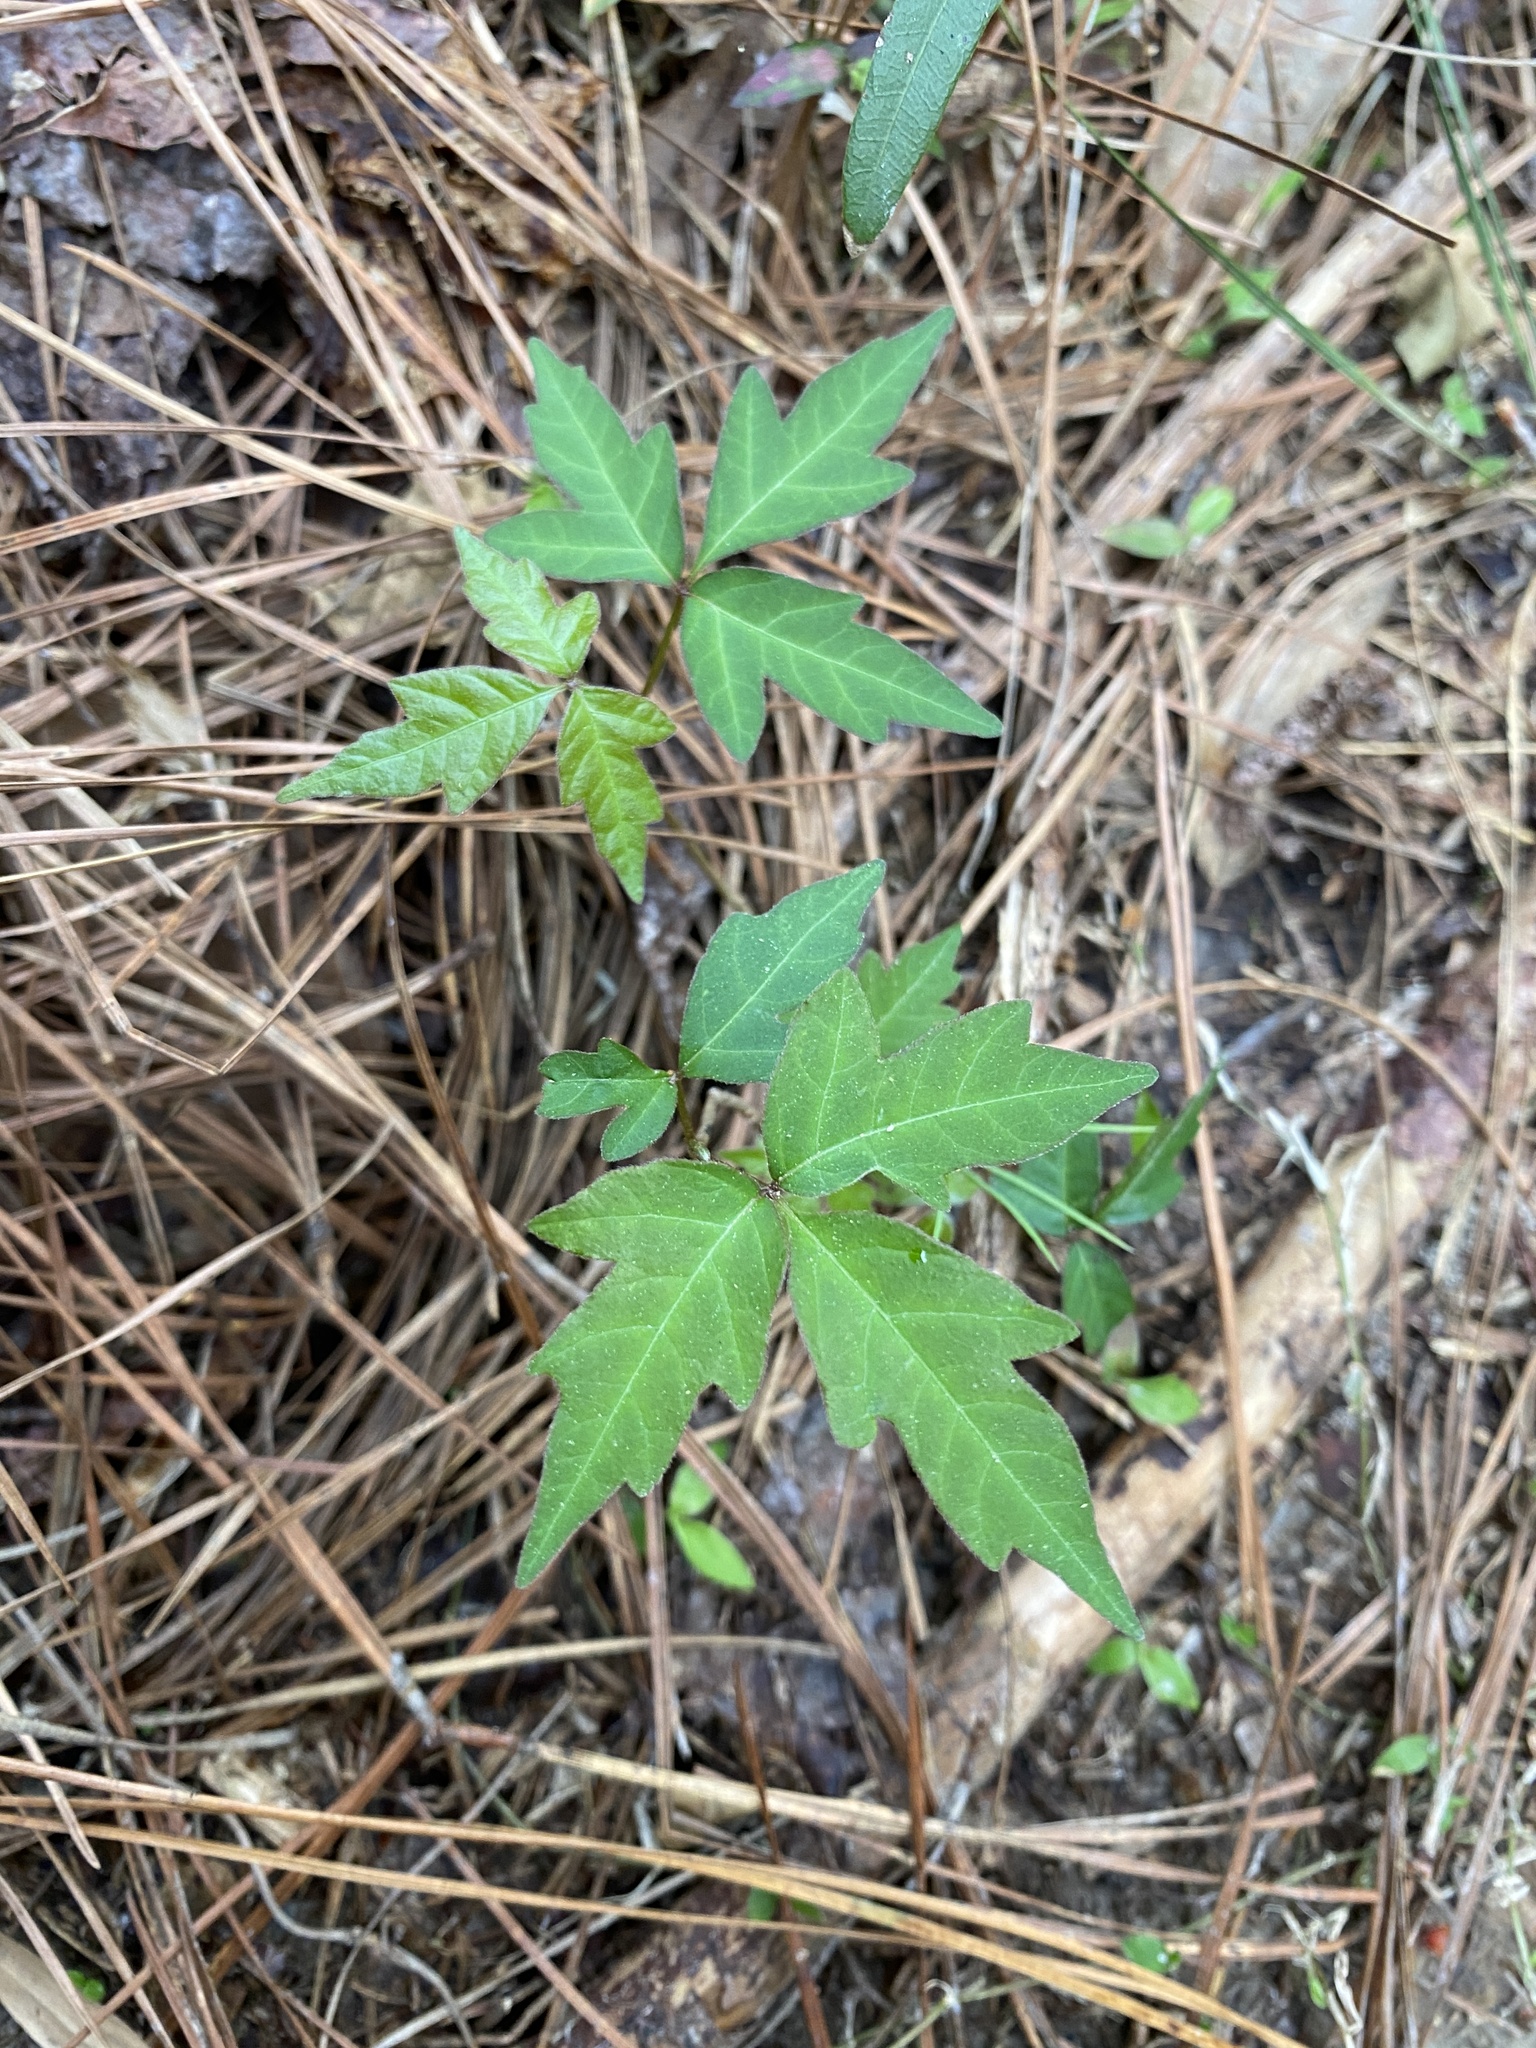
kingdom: Plantae
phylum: Tracheophyta
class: Magnoliopsida
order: Sapindales
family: Anacardiaceae
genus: Toxicodendron
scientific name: Toxicodendron radicans
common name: Poison ivy
